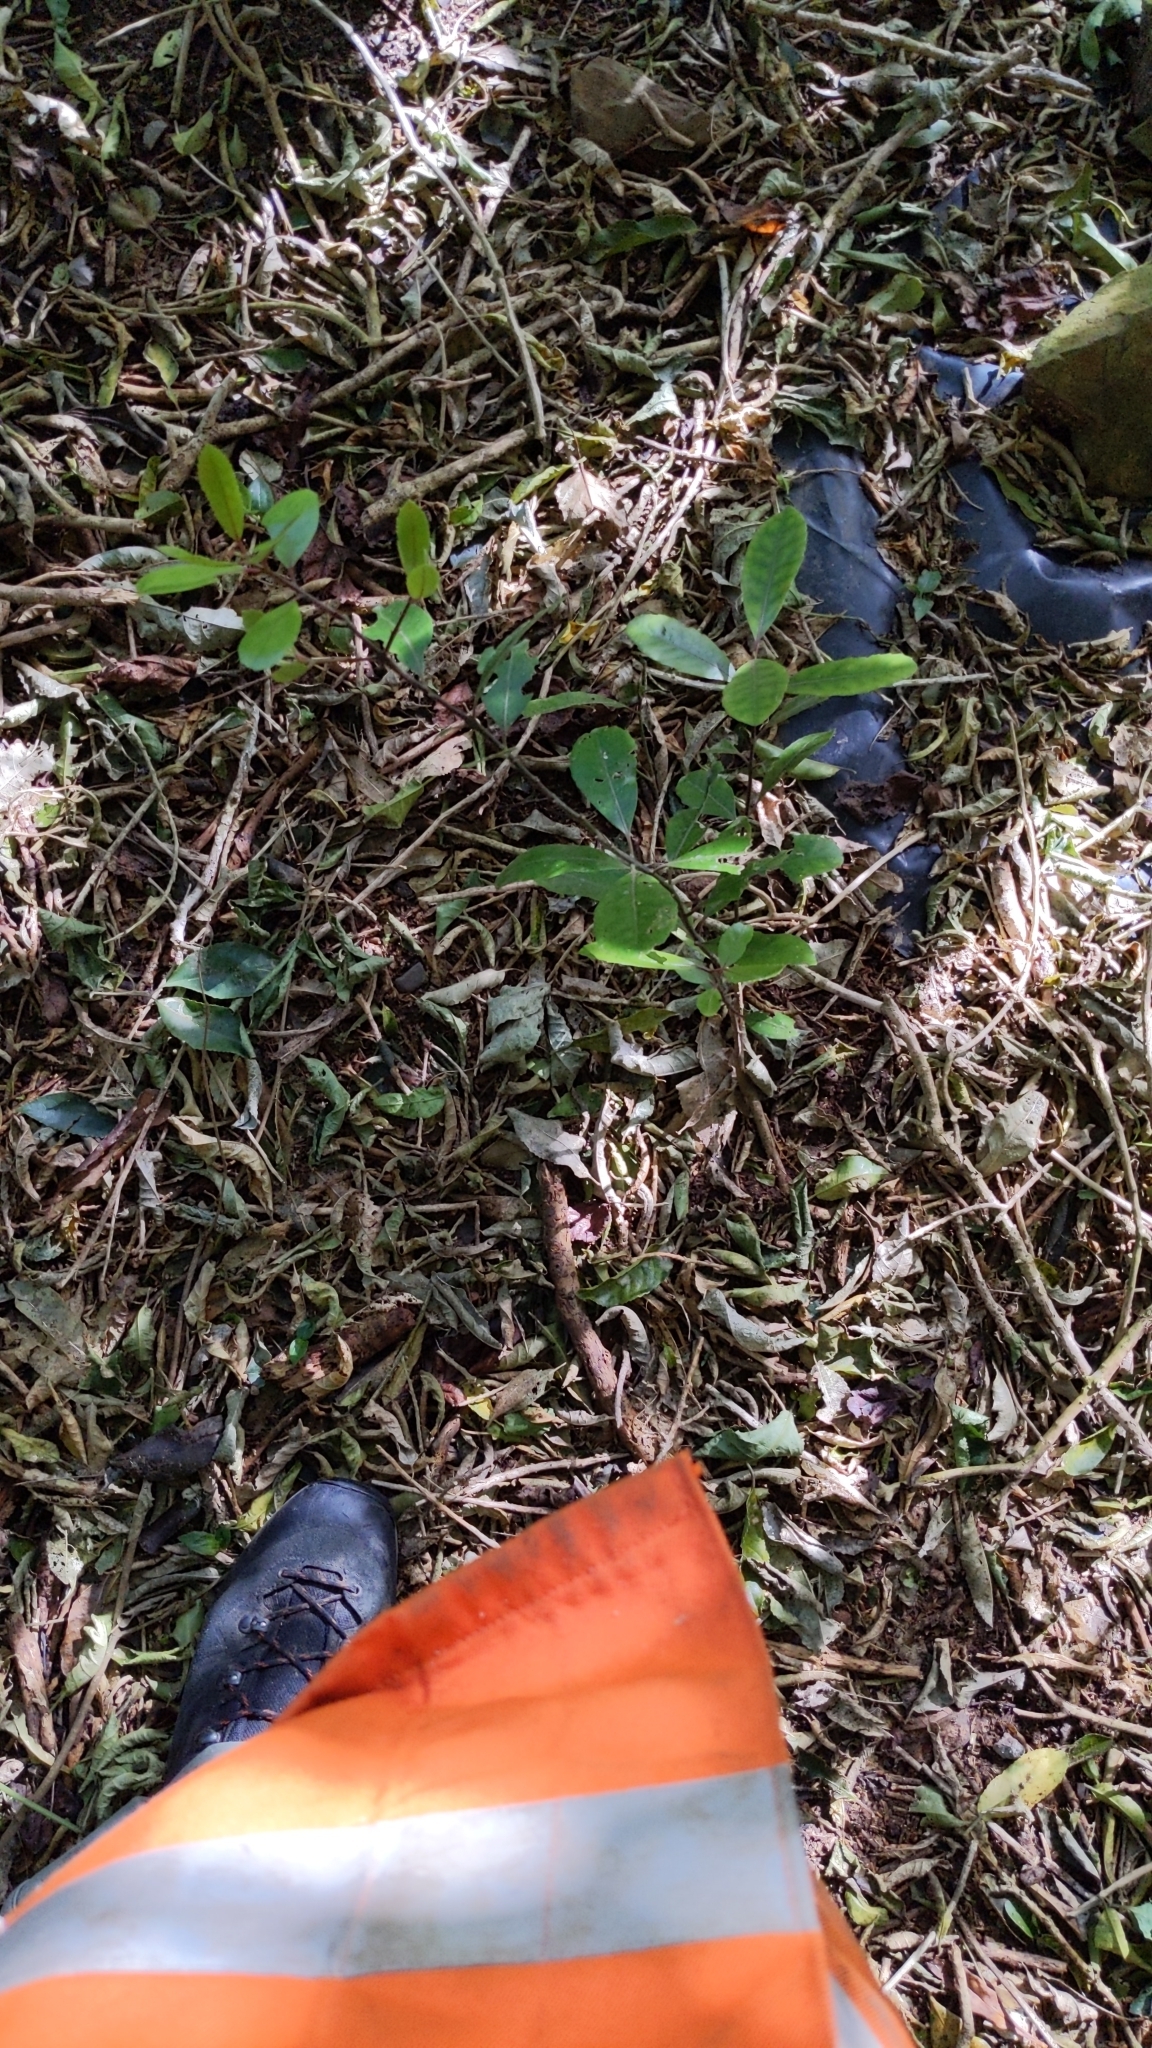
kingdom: Plantae
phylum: Tracheophyta
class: Magnoliopsida
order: Laurales
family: Monimiaceae
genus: Hedycarya
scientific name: Hedycarya arborea
